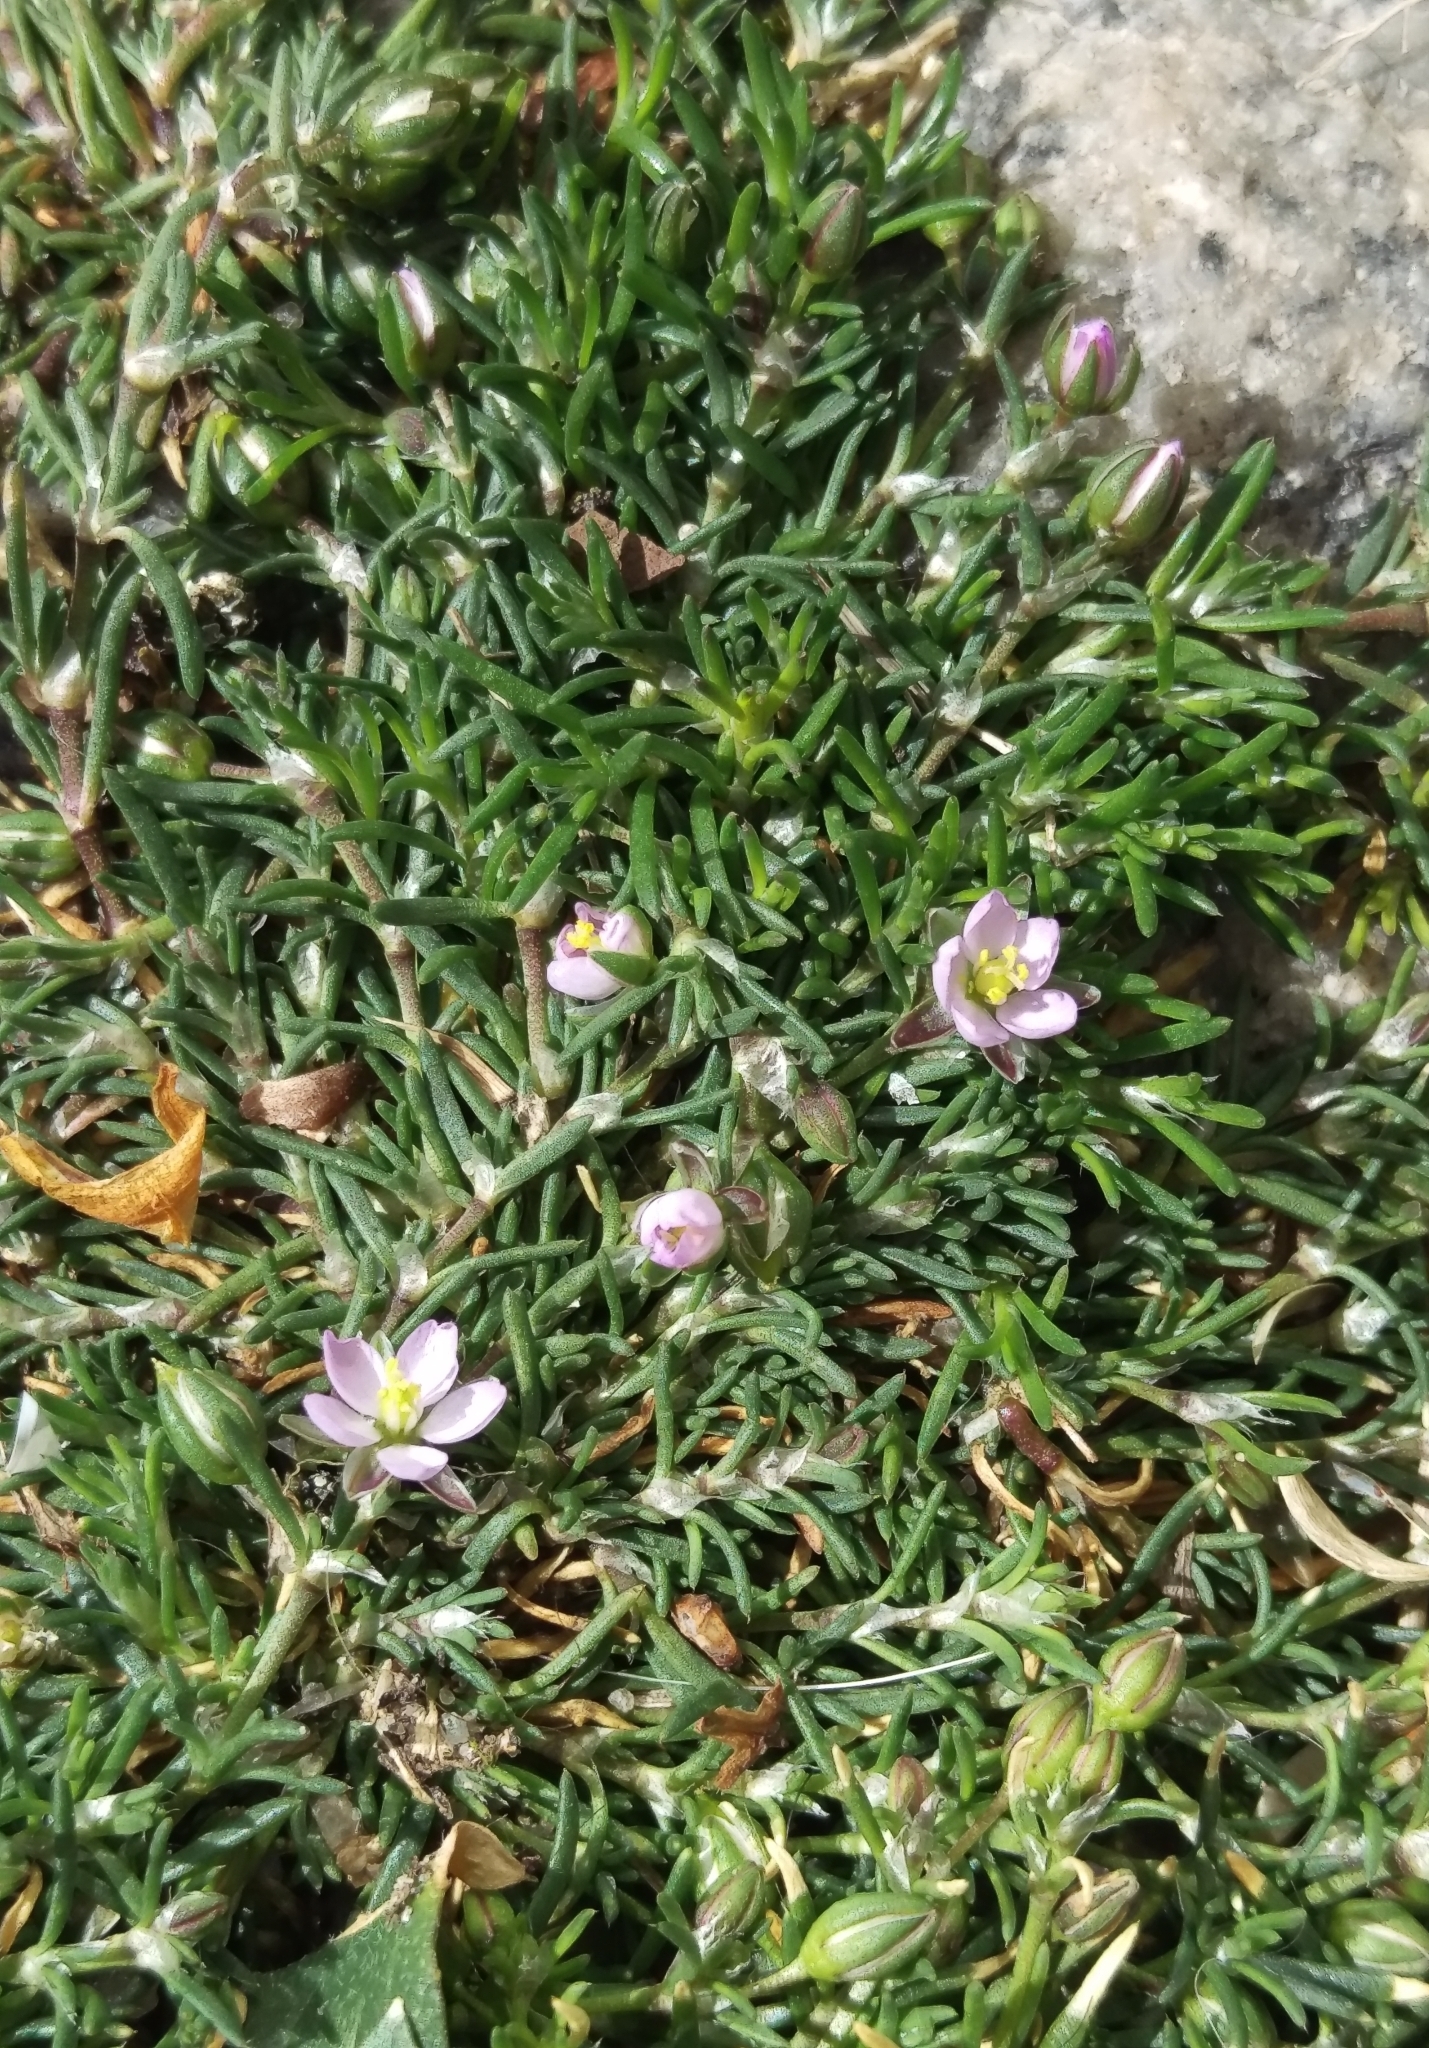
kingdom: Plantae
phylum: Tracheophyta
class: Magnoliopsida
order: Caryophyllales
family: Caryophyllaceae
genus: Spergularia
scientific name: Spergularia rubra
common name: Red sand-spurrey
